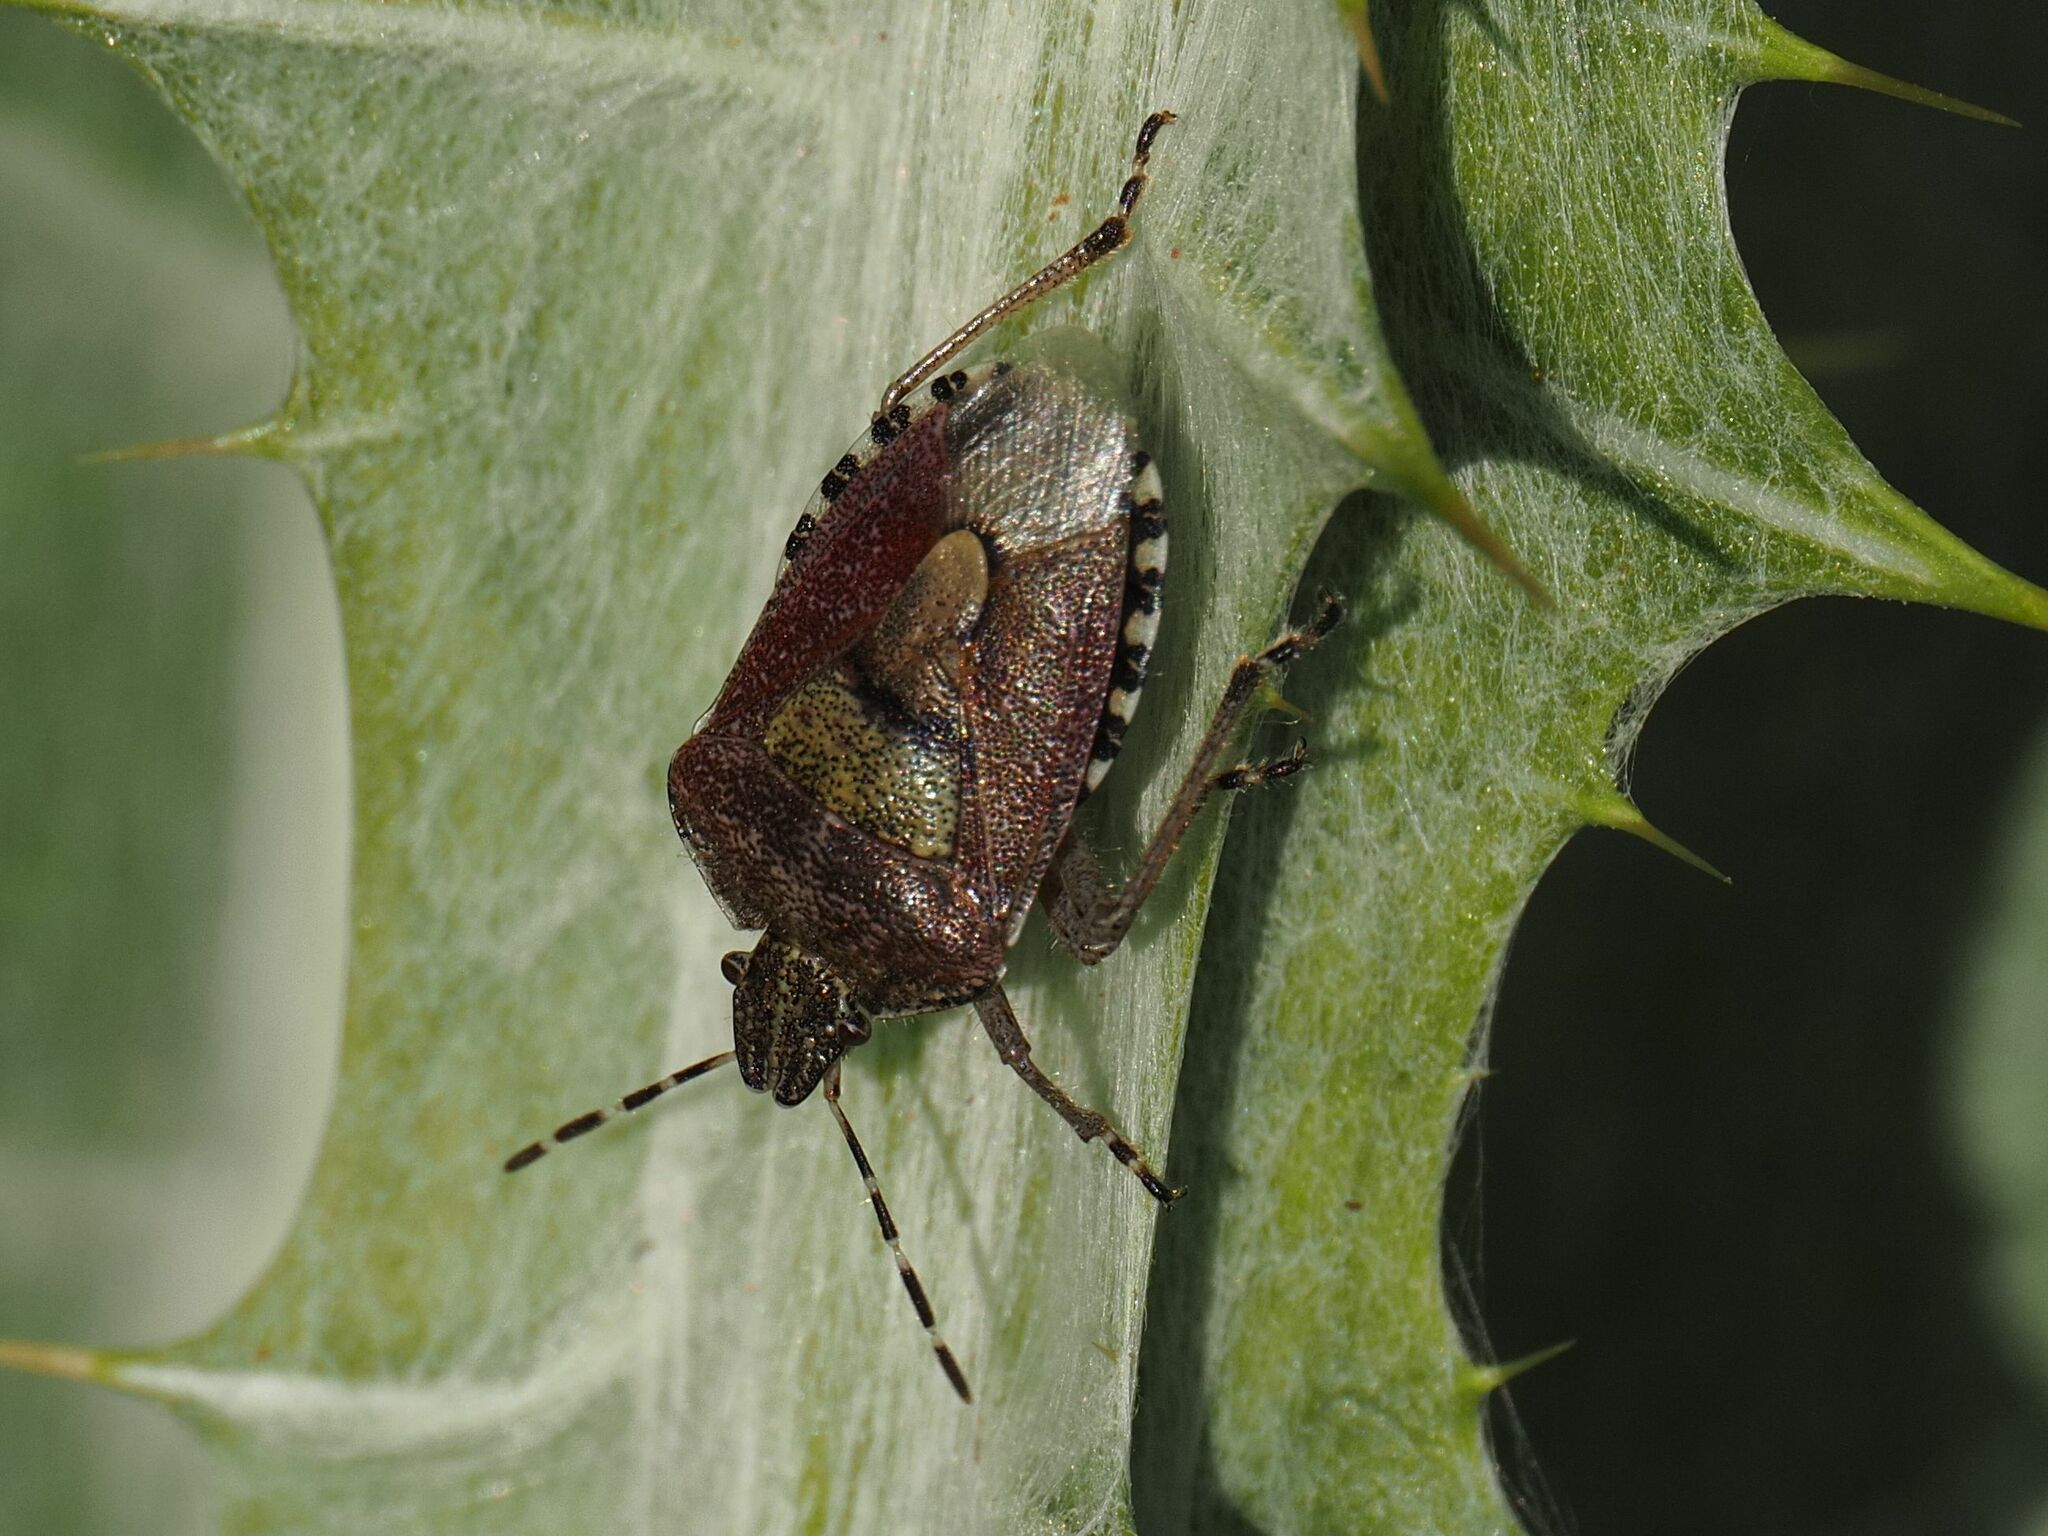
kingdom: Animalia
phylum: Arthropoda
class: Insecta
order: Hemiptera
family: Pentatomidae
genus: Dolycoris
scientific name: Dolycoris baccarum
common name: Sloe bug
